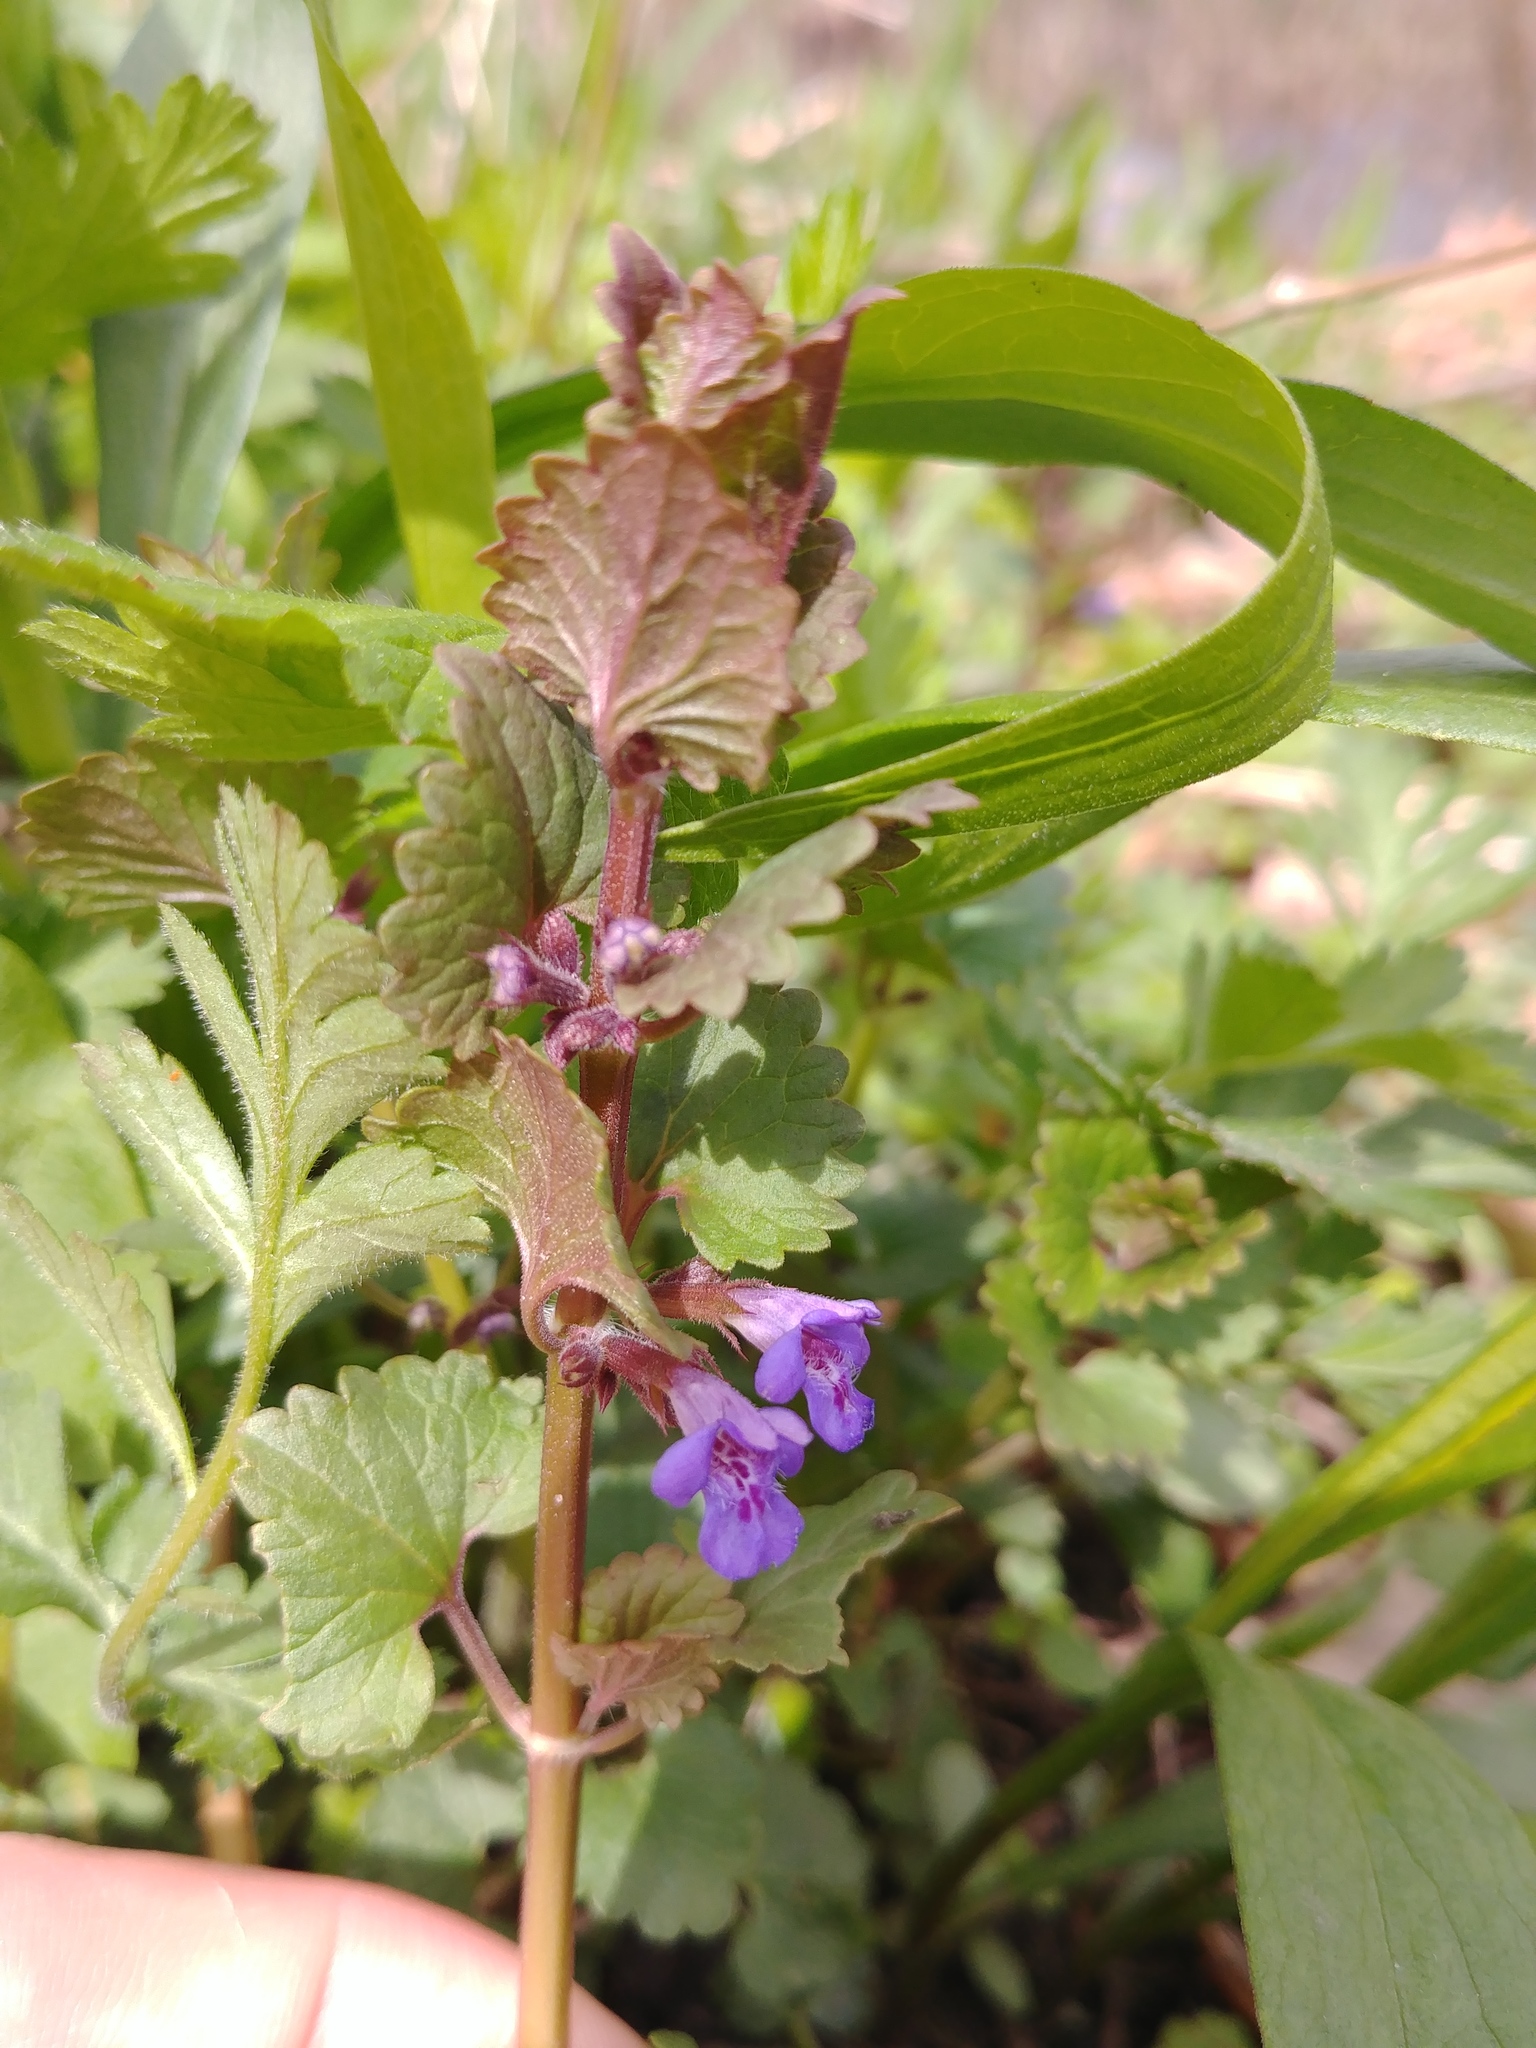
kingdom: Plantae
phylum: Tracheophyta
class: Magnoliopsida
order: Lamiales
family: Lamiaceae
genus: Glechoma
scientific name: Glechoma hederacea
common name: Ground ivy
